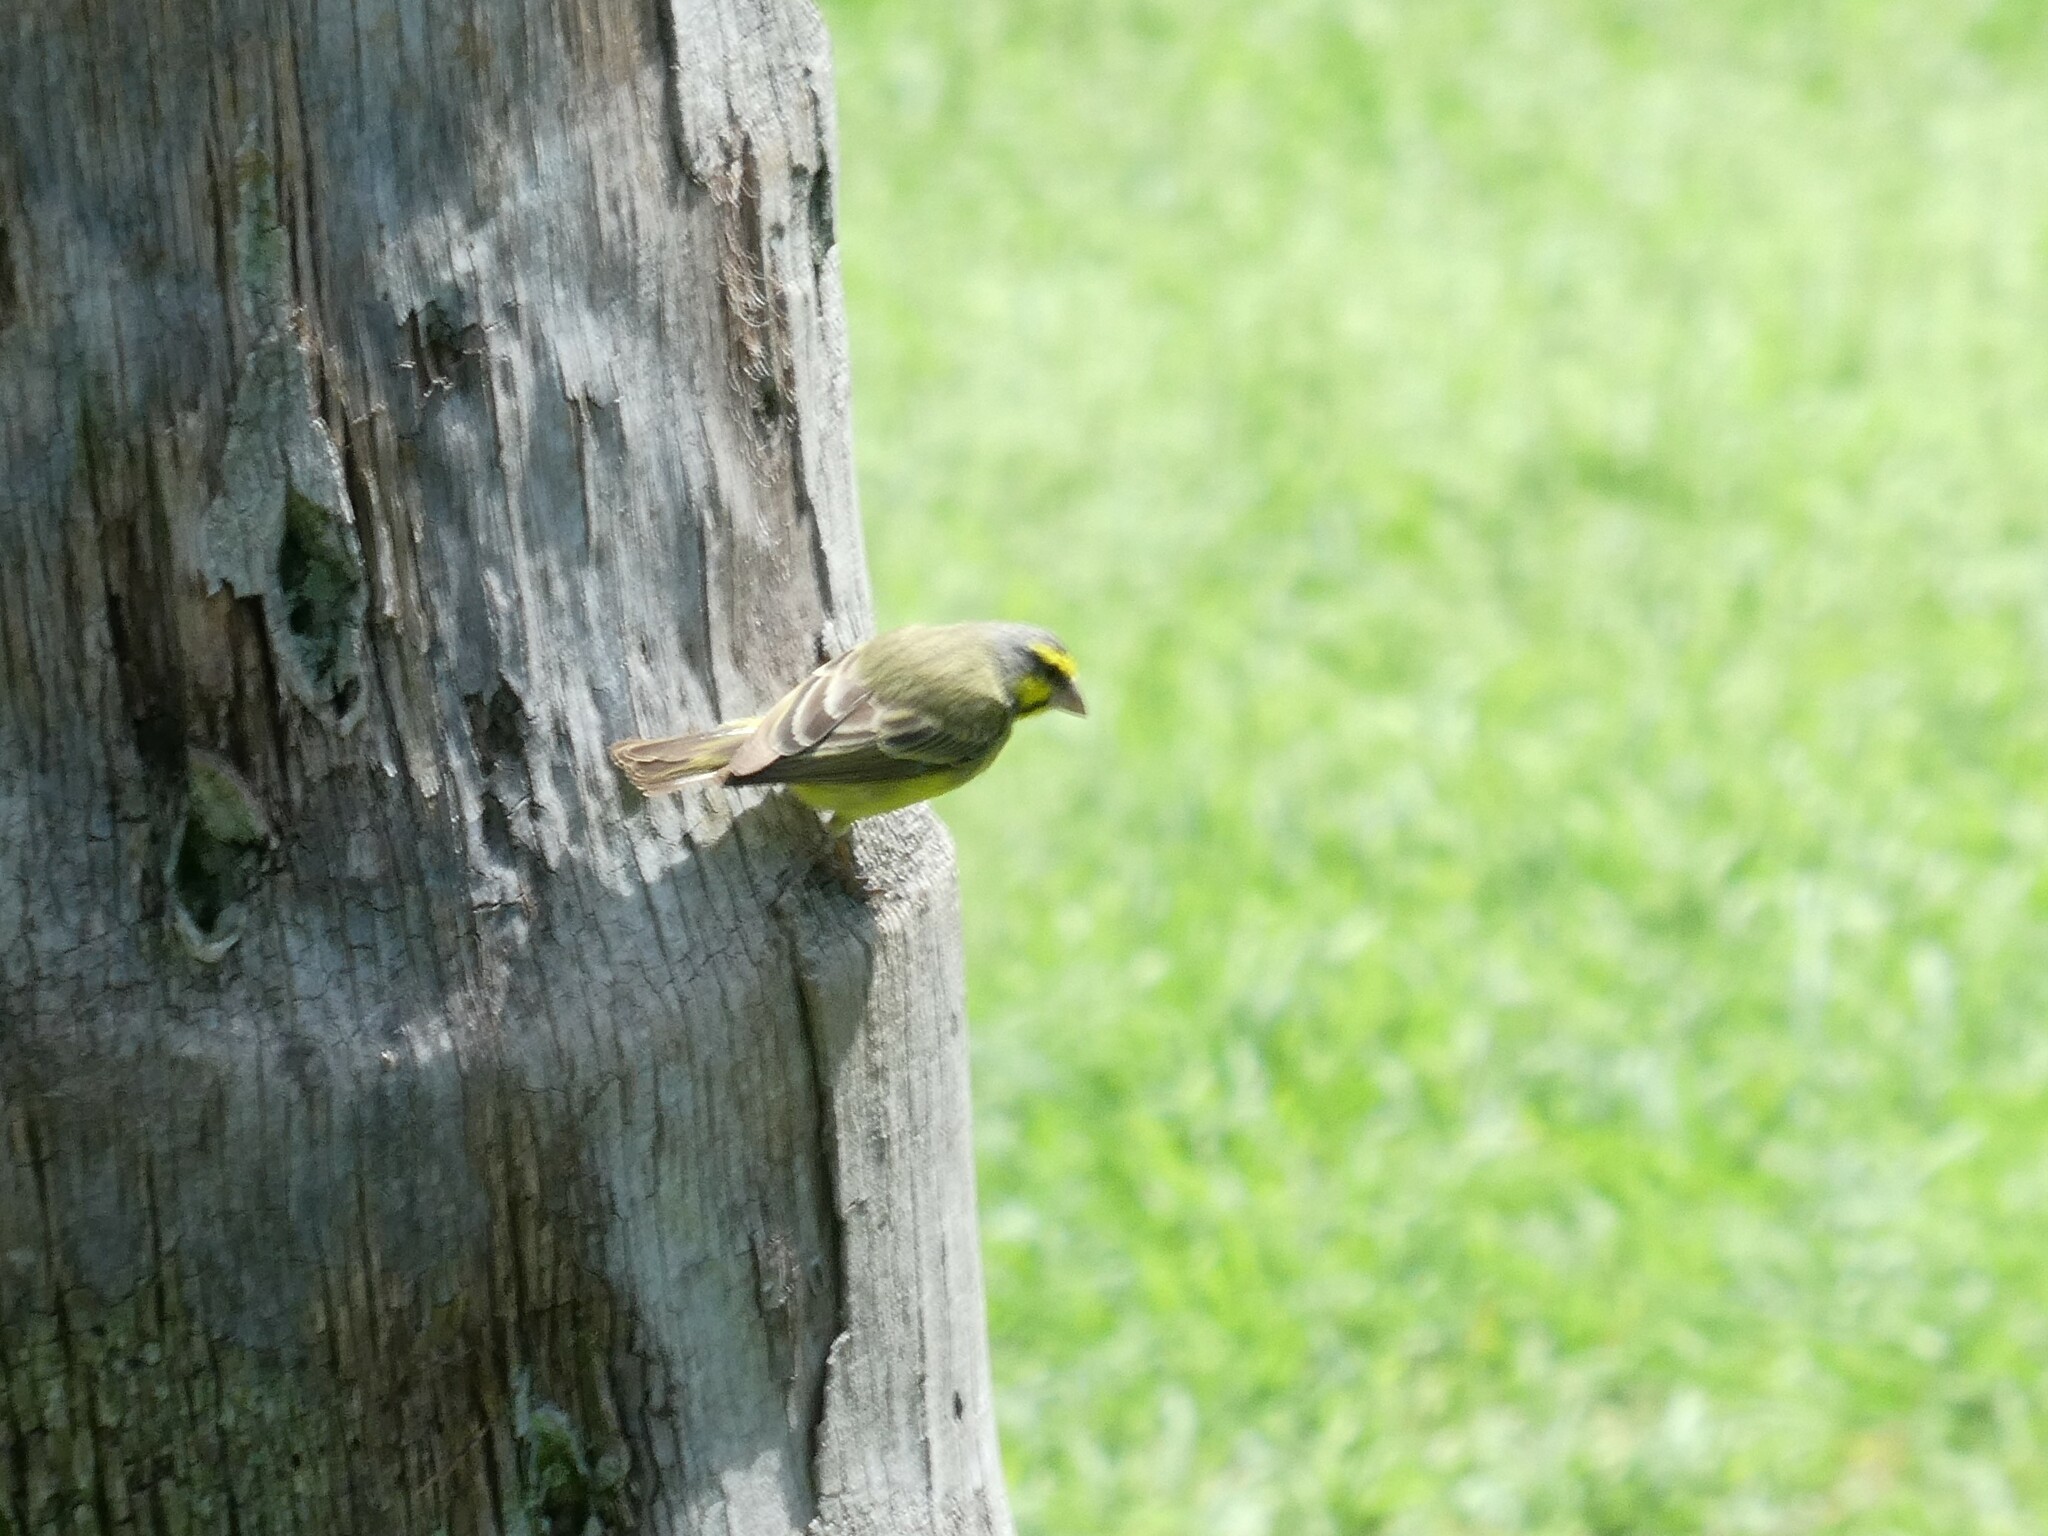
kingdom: Animalia
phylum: Chordata
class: Aves
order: Passeriformes
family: Fringillidae
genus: Crithagra
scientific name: Crithagra mozambica
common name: Yellow-fronted canary
